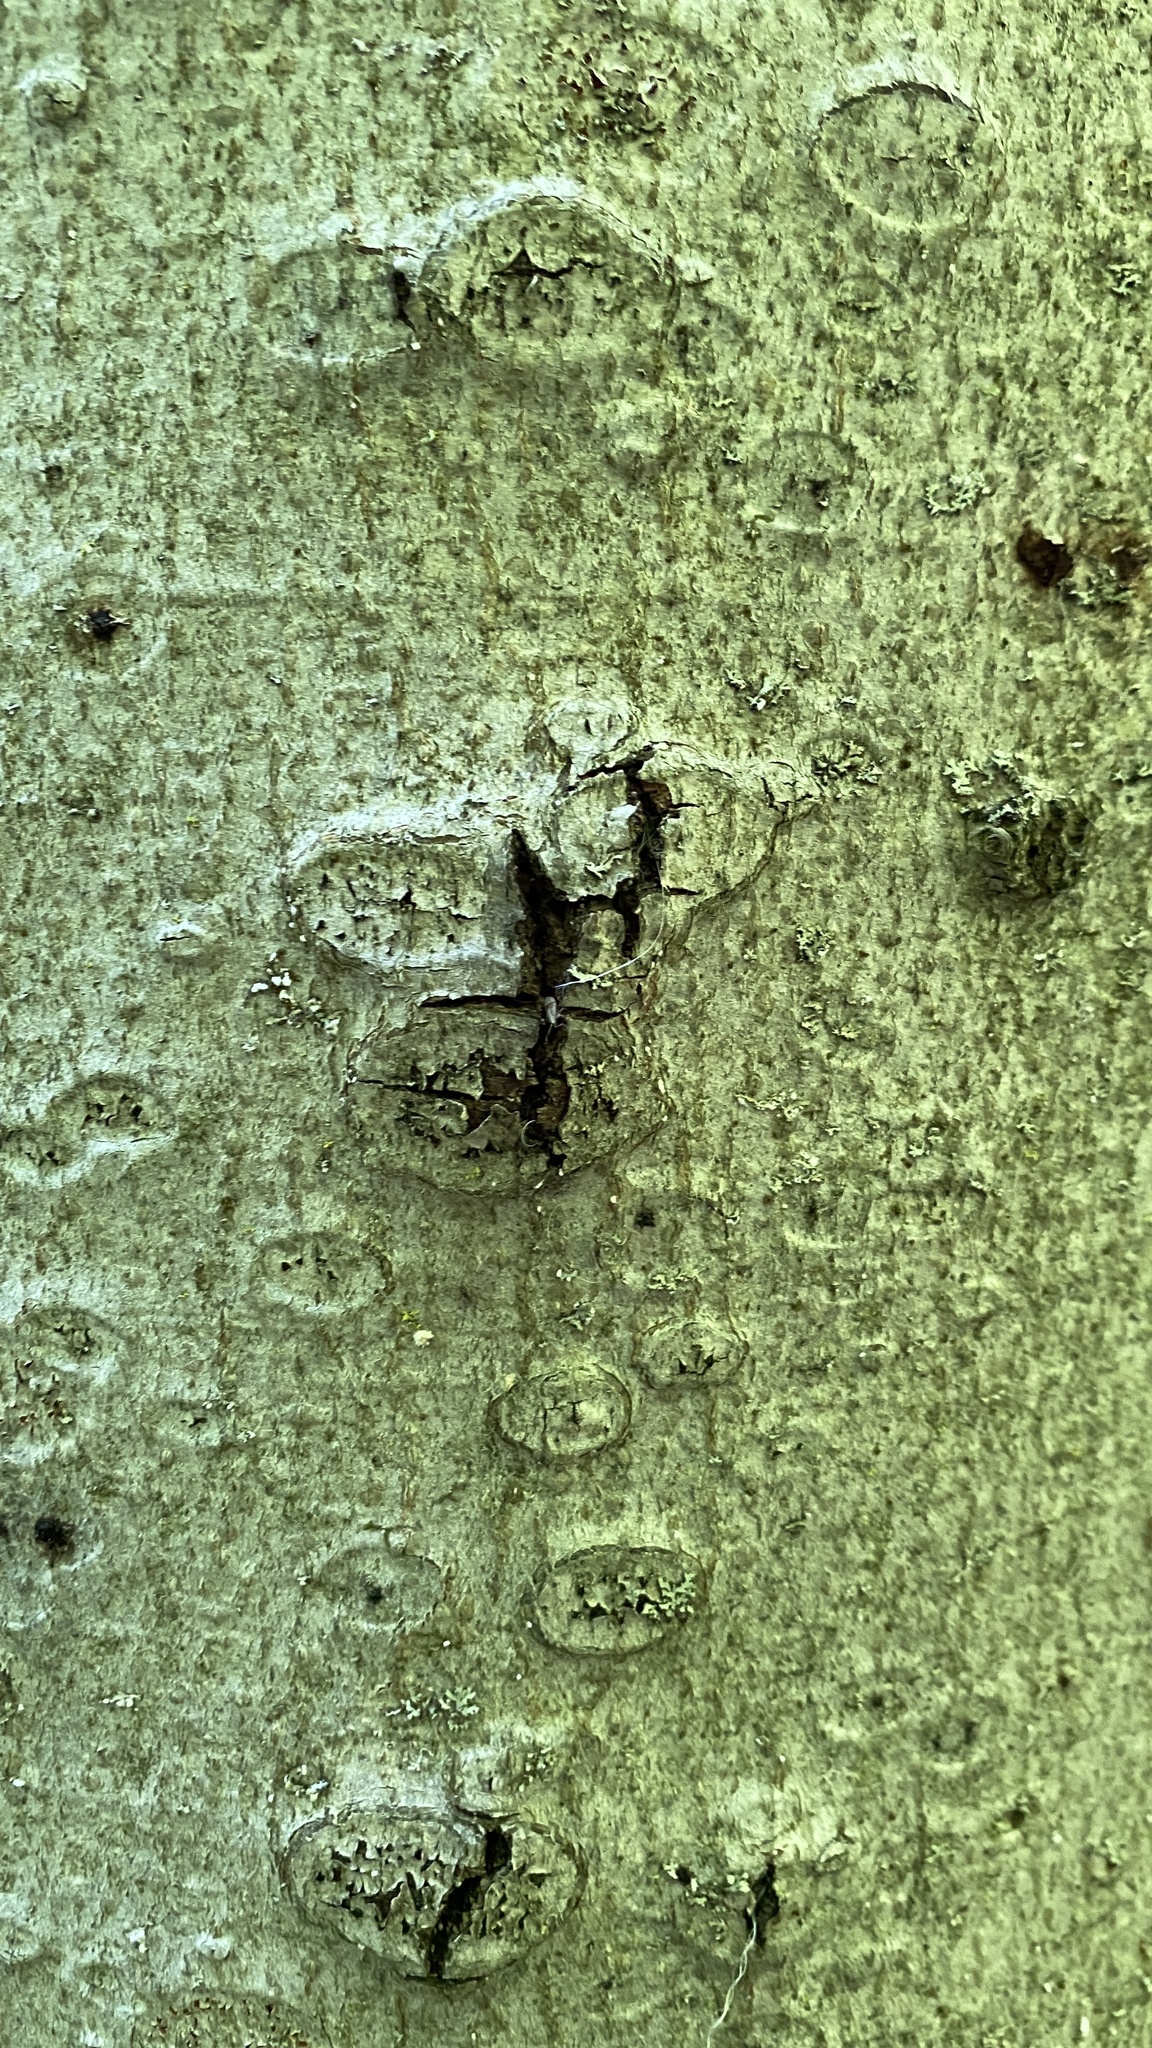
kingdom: Animalia
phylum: Arthropoda
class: Insecta
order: Hemiptera
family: Eriococcidae
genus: Cryptococcus
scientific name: Cryptococcus fagisuga
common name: Beech scale
